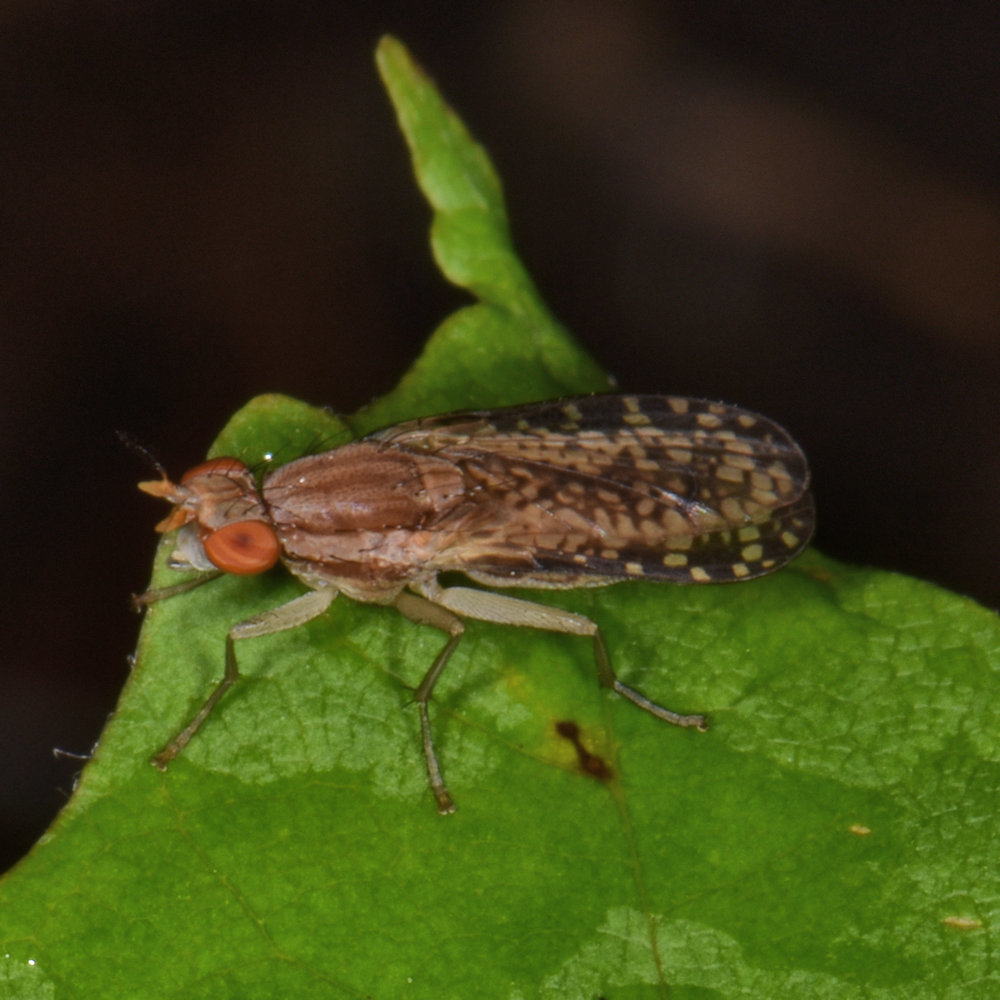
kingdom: Animalia
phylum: Arthropoda
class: Insecta
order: Diptera
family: Sciomyzidae
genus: Trypetoptera
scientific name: Trypetoptera canadensis
